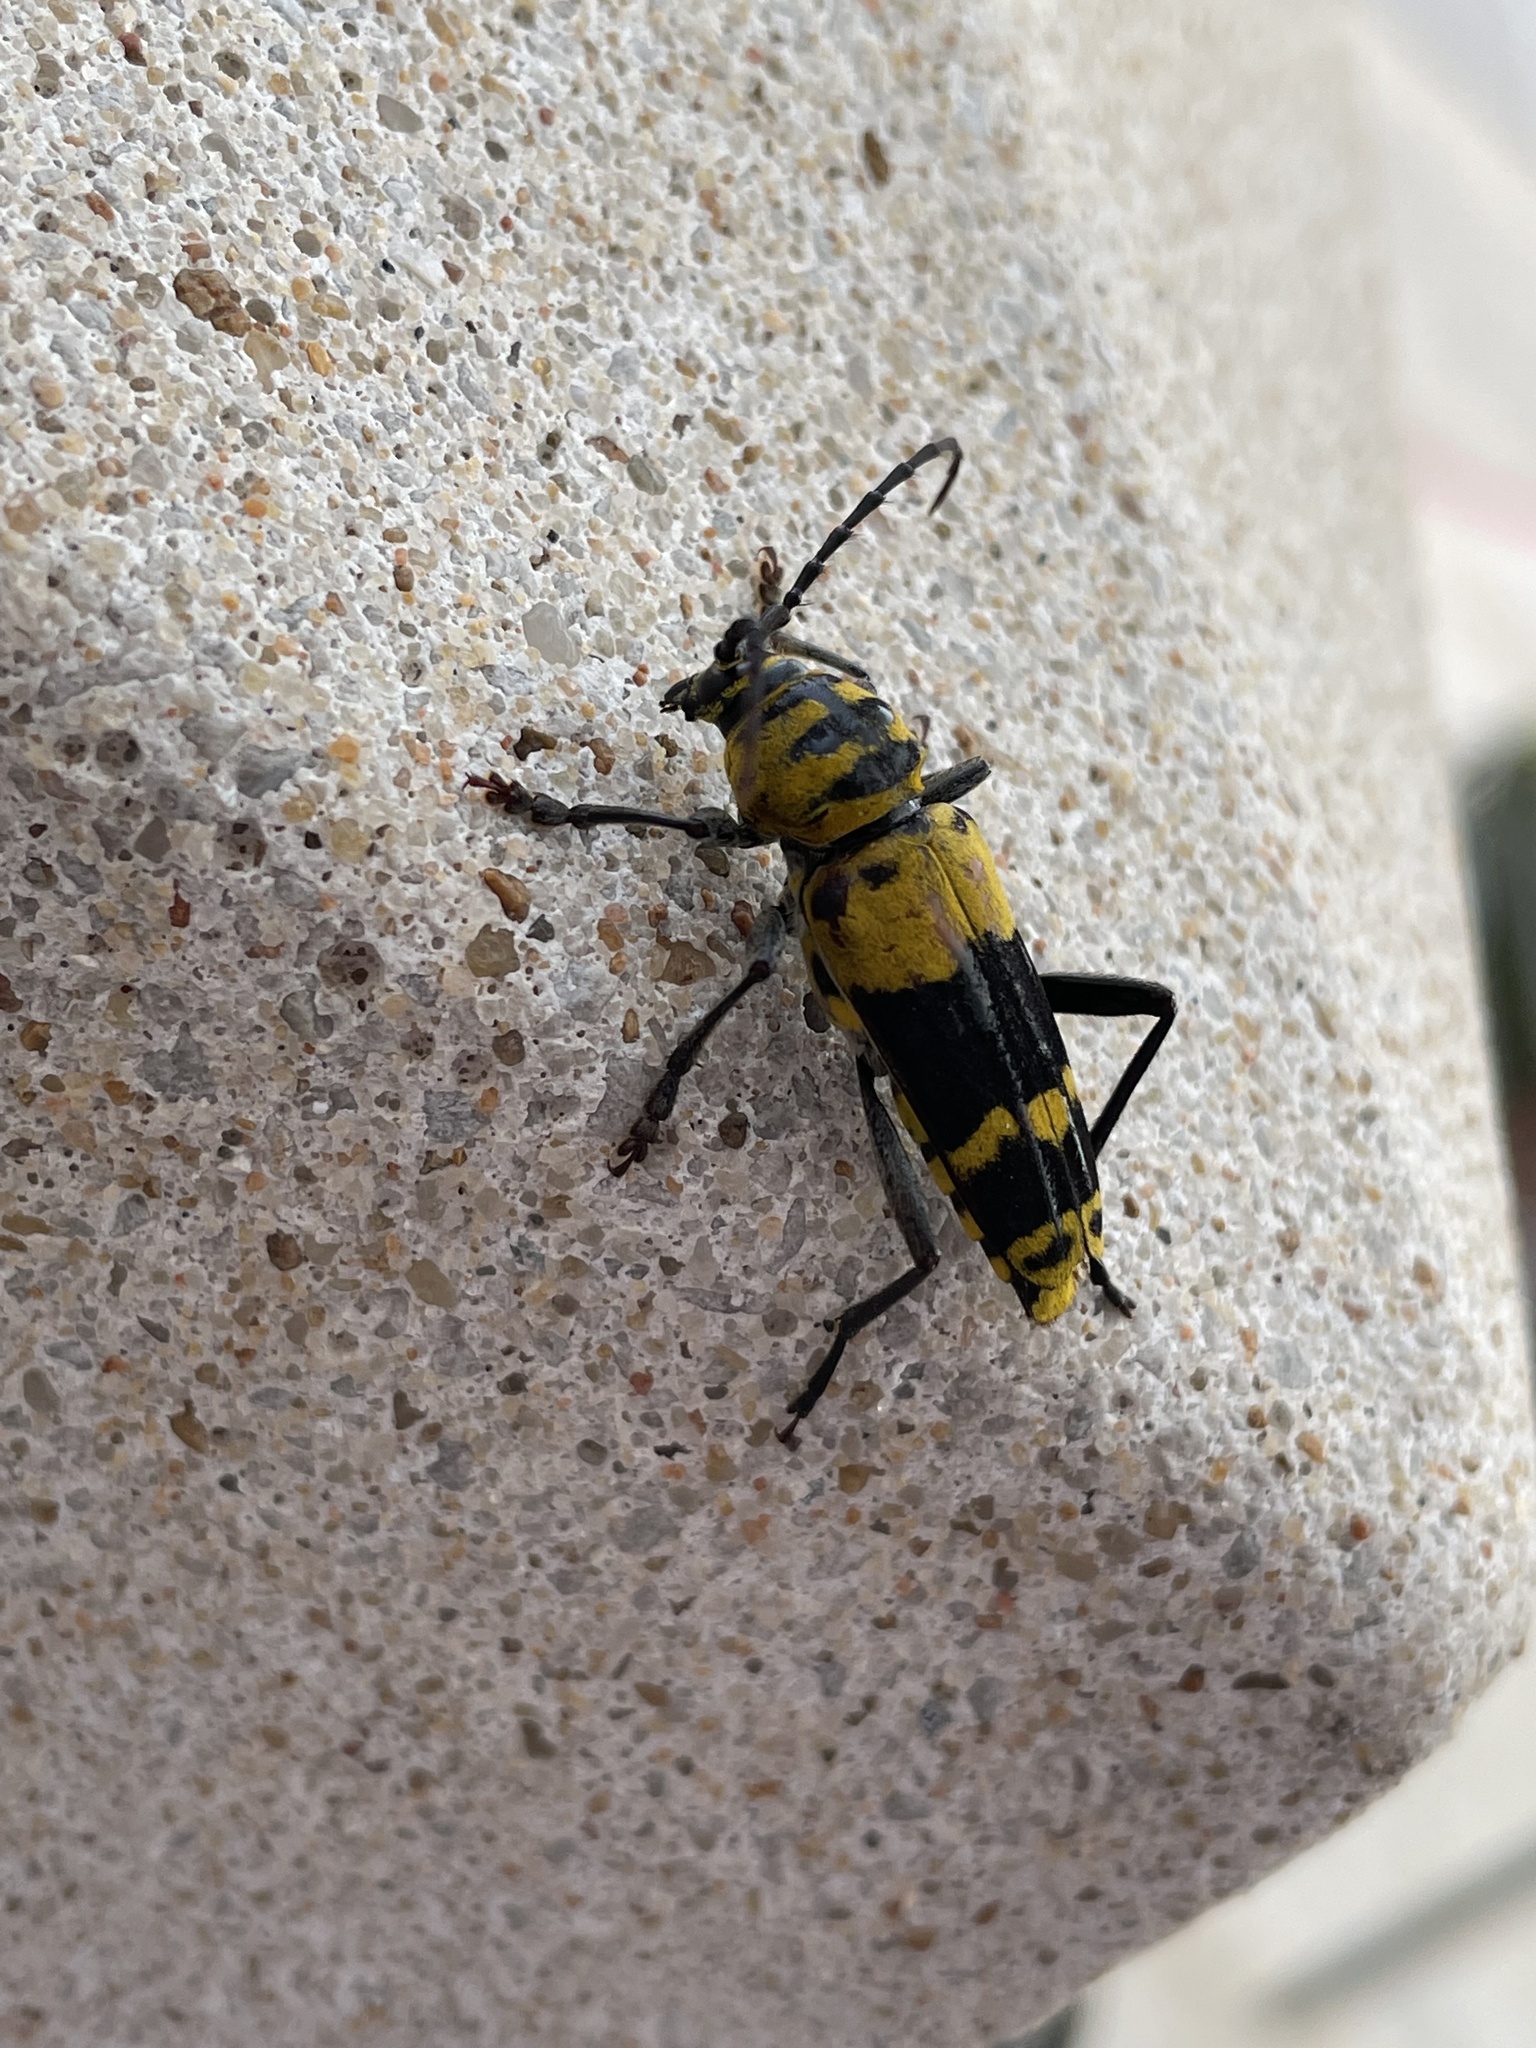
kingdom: Animalia
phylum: Arthropoda
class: Insecta
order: Coleoptera
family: Cerambycidae
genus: Megacyllene
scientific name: Megacyllene decora
